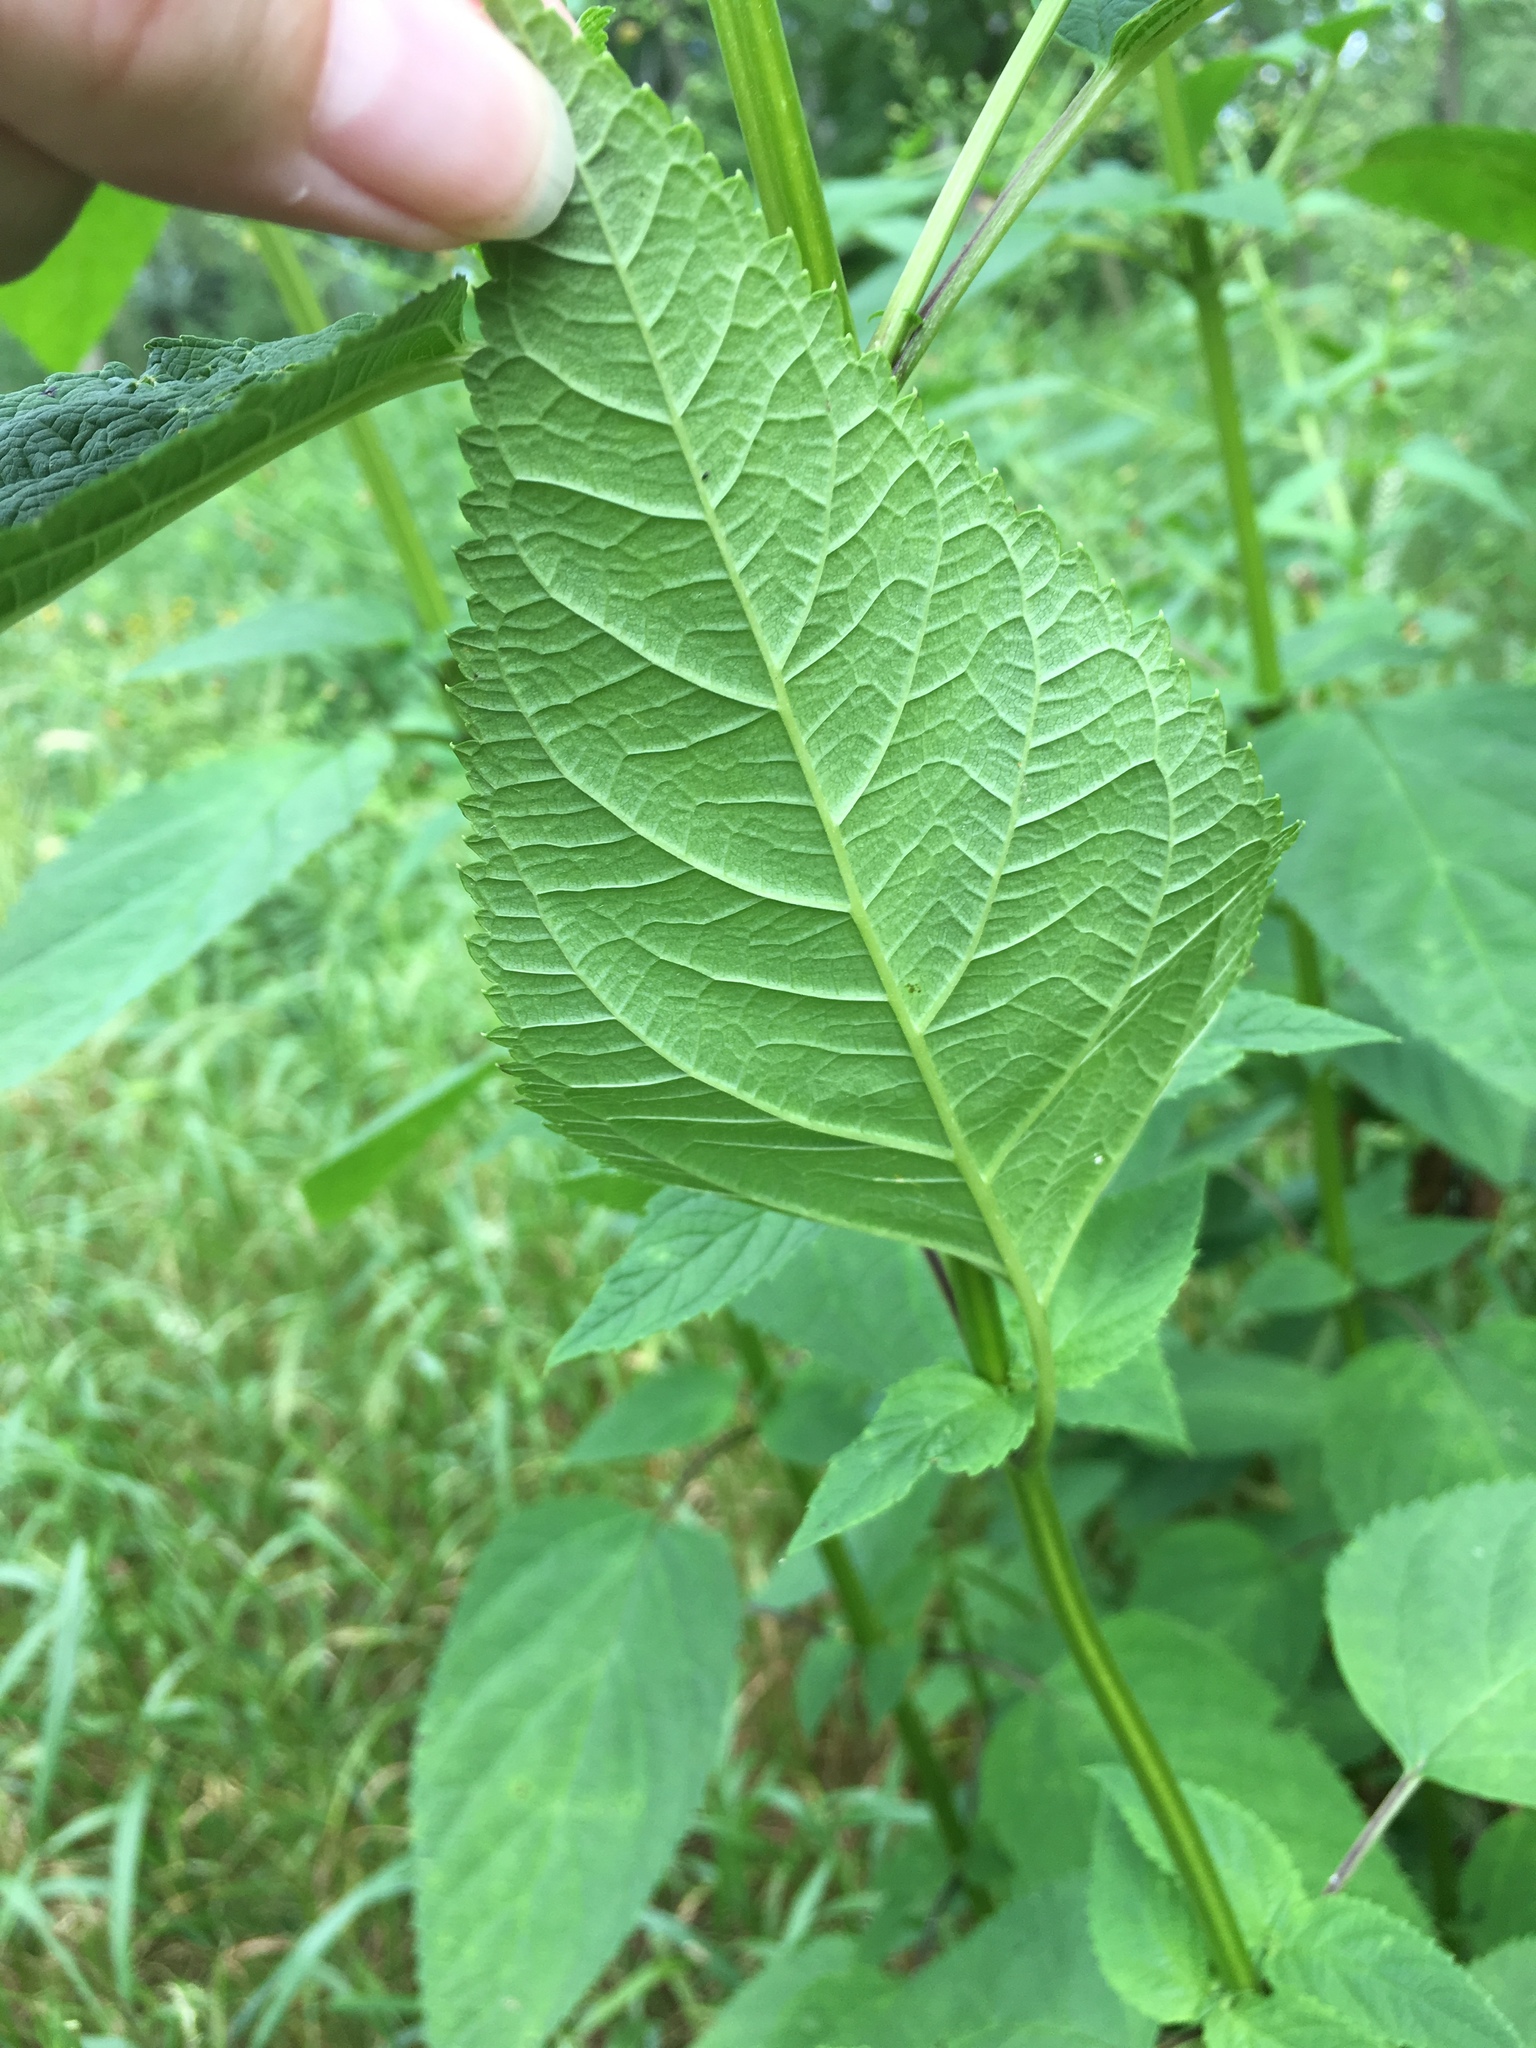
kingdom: Plantae
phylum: Tracheophyta
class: Magnoliopsida
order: Lamiales
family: Scrophulariaceae
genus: Scrophularia
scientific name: Scrophularia marilandica
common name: Eastern figwort
